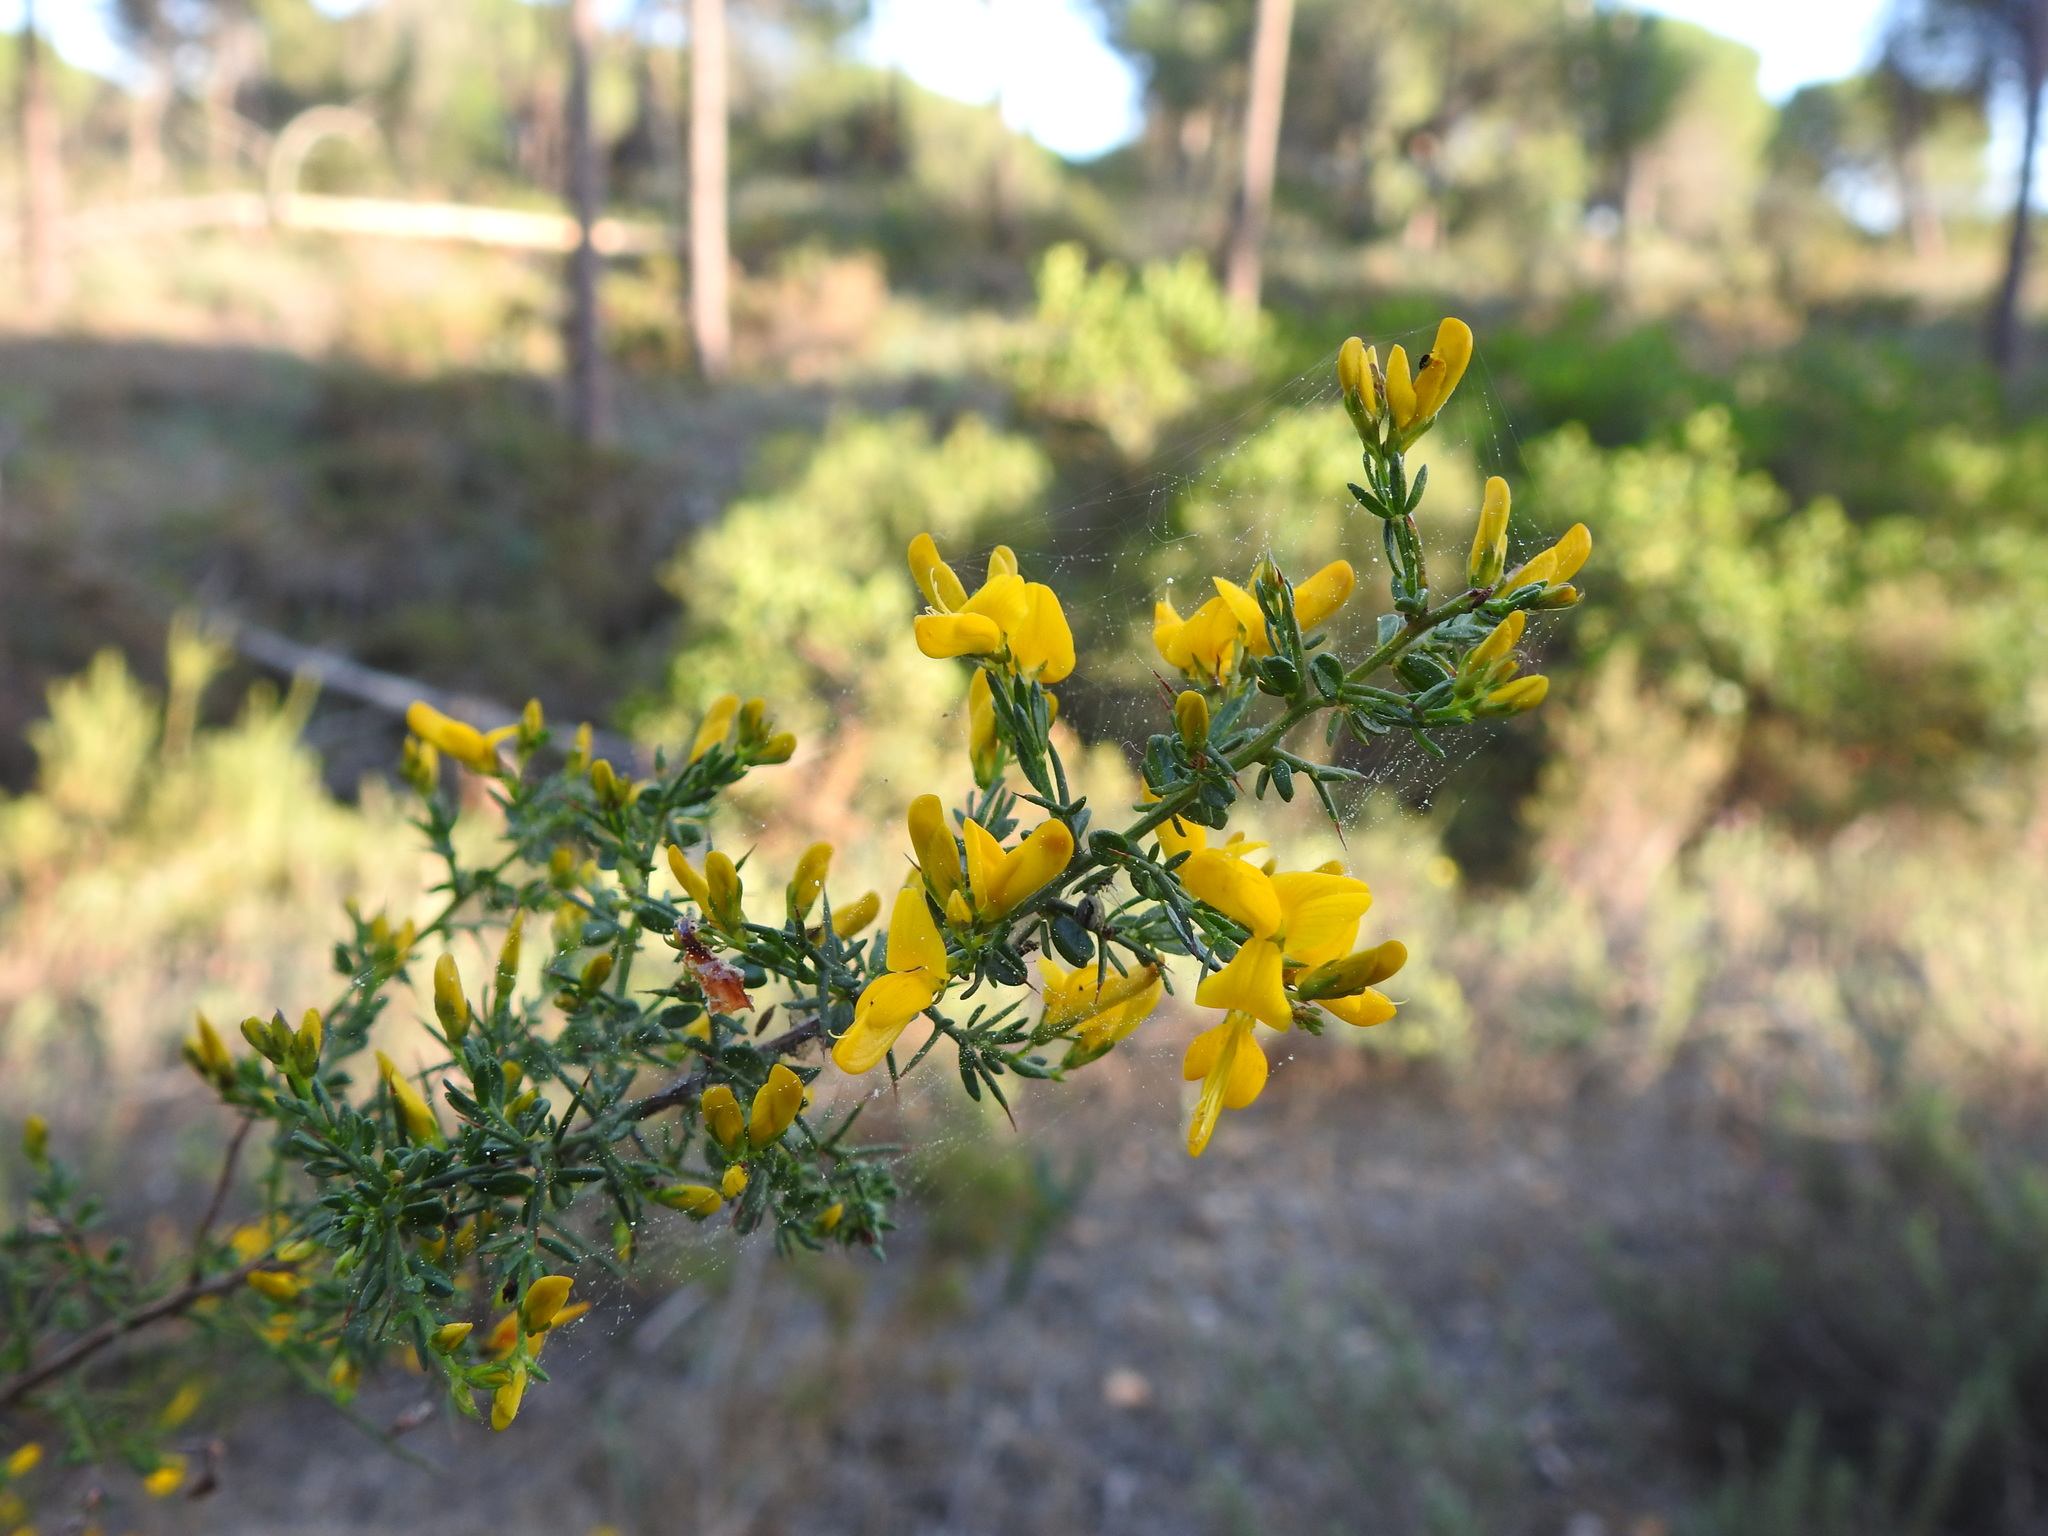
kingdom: Plantae
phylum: Tracheophyta
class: Magnoliopsida
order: Fabales
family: Fabaceae
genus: Genista
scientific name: Genista triacanthos
